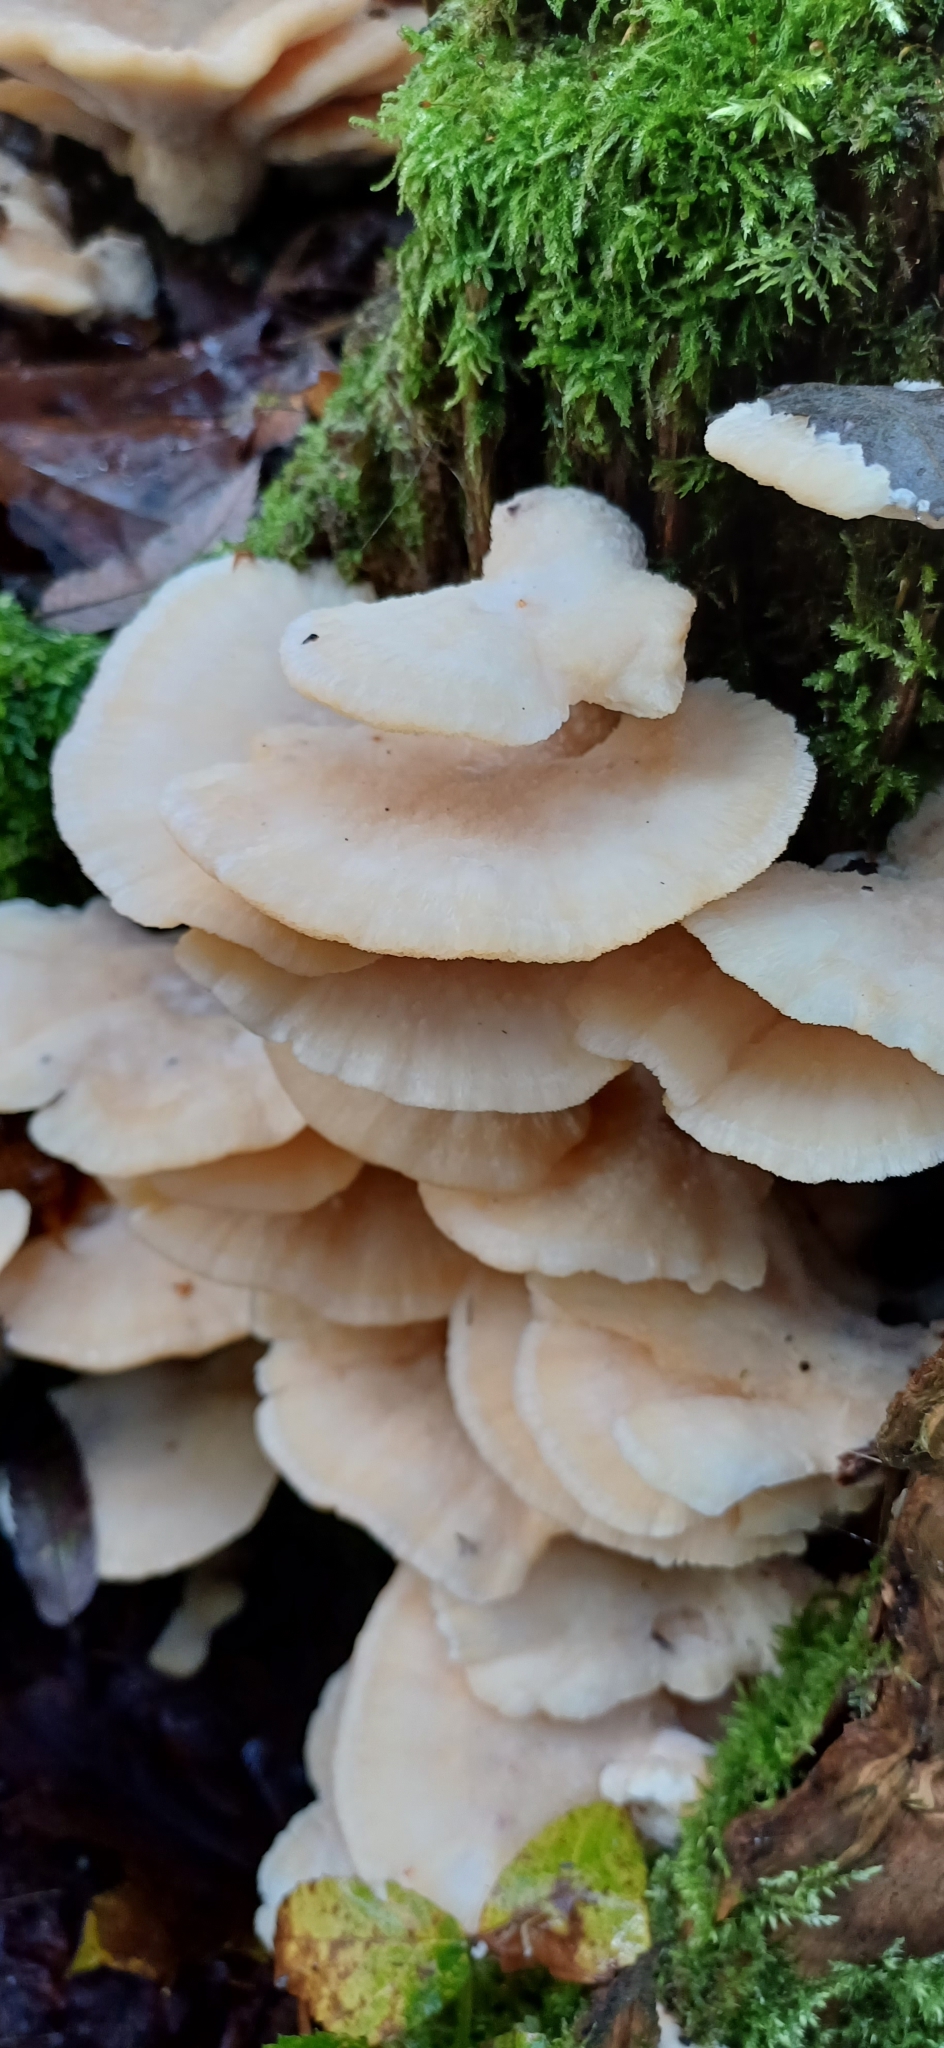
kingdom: Fungi
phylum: Basidiomycota
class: Agaricomycetes
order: Polyporales
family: Fomitopsidaceae
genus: Climacocystis
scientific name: Climacocystis borealis
